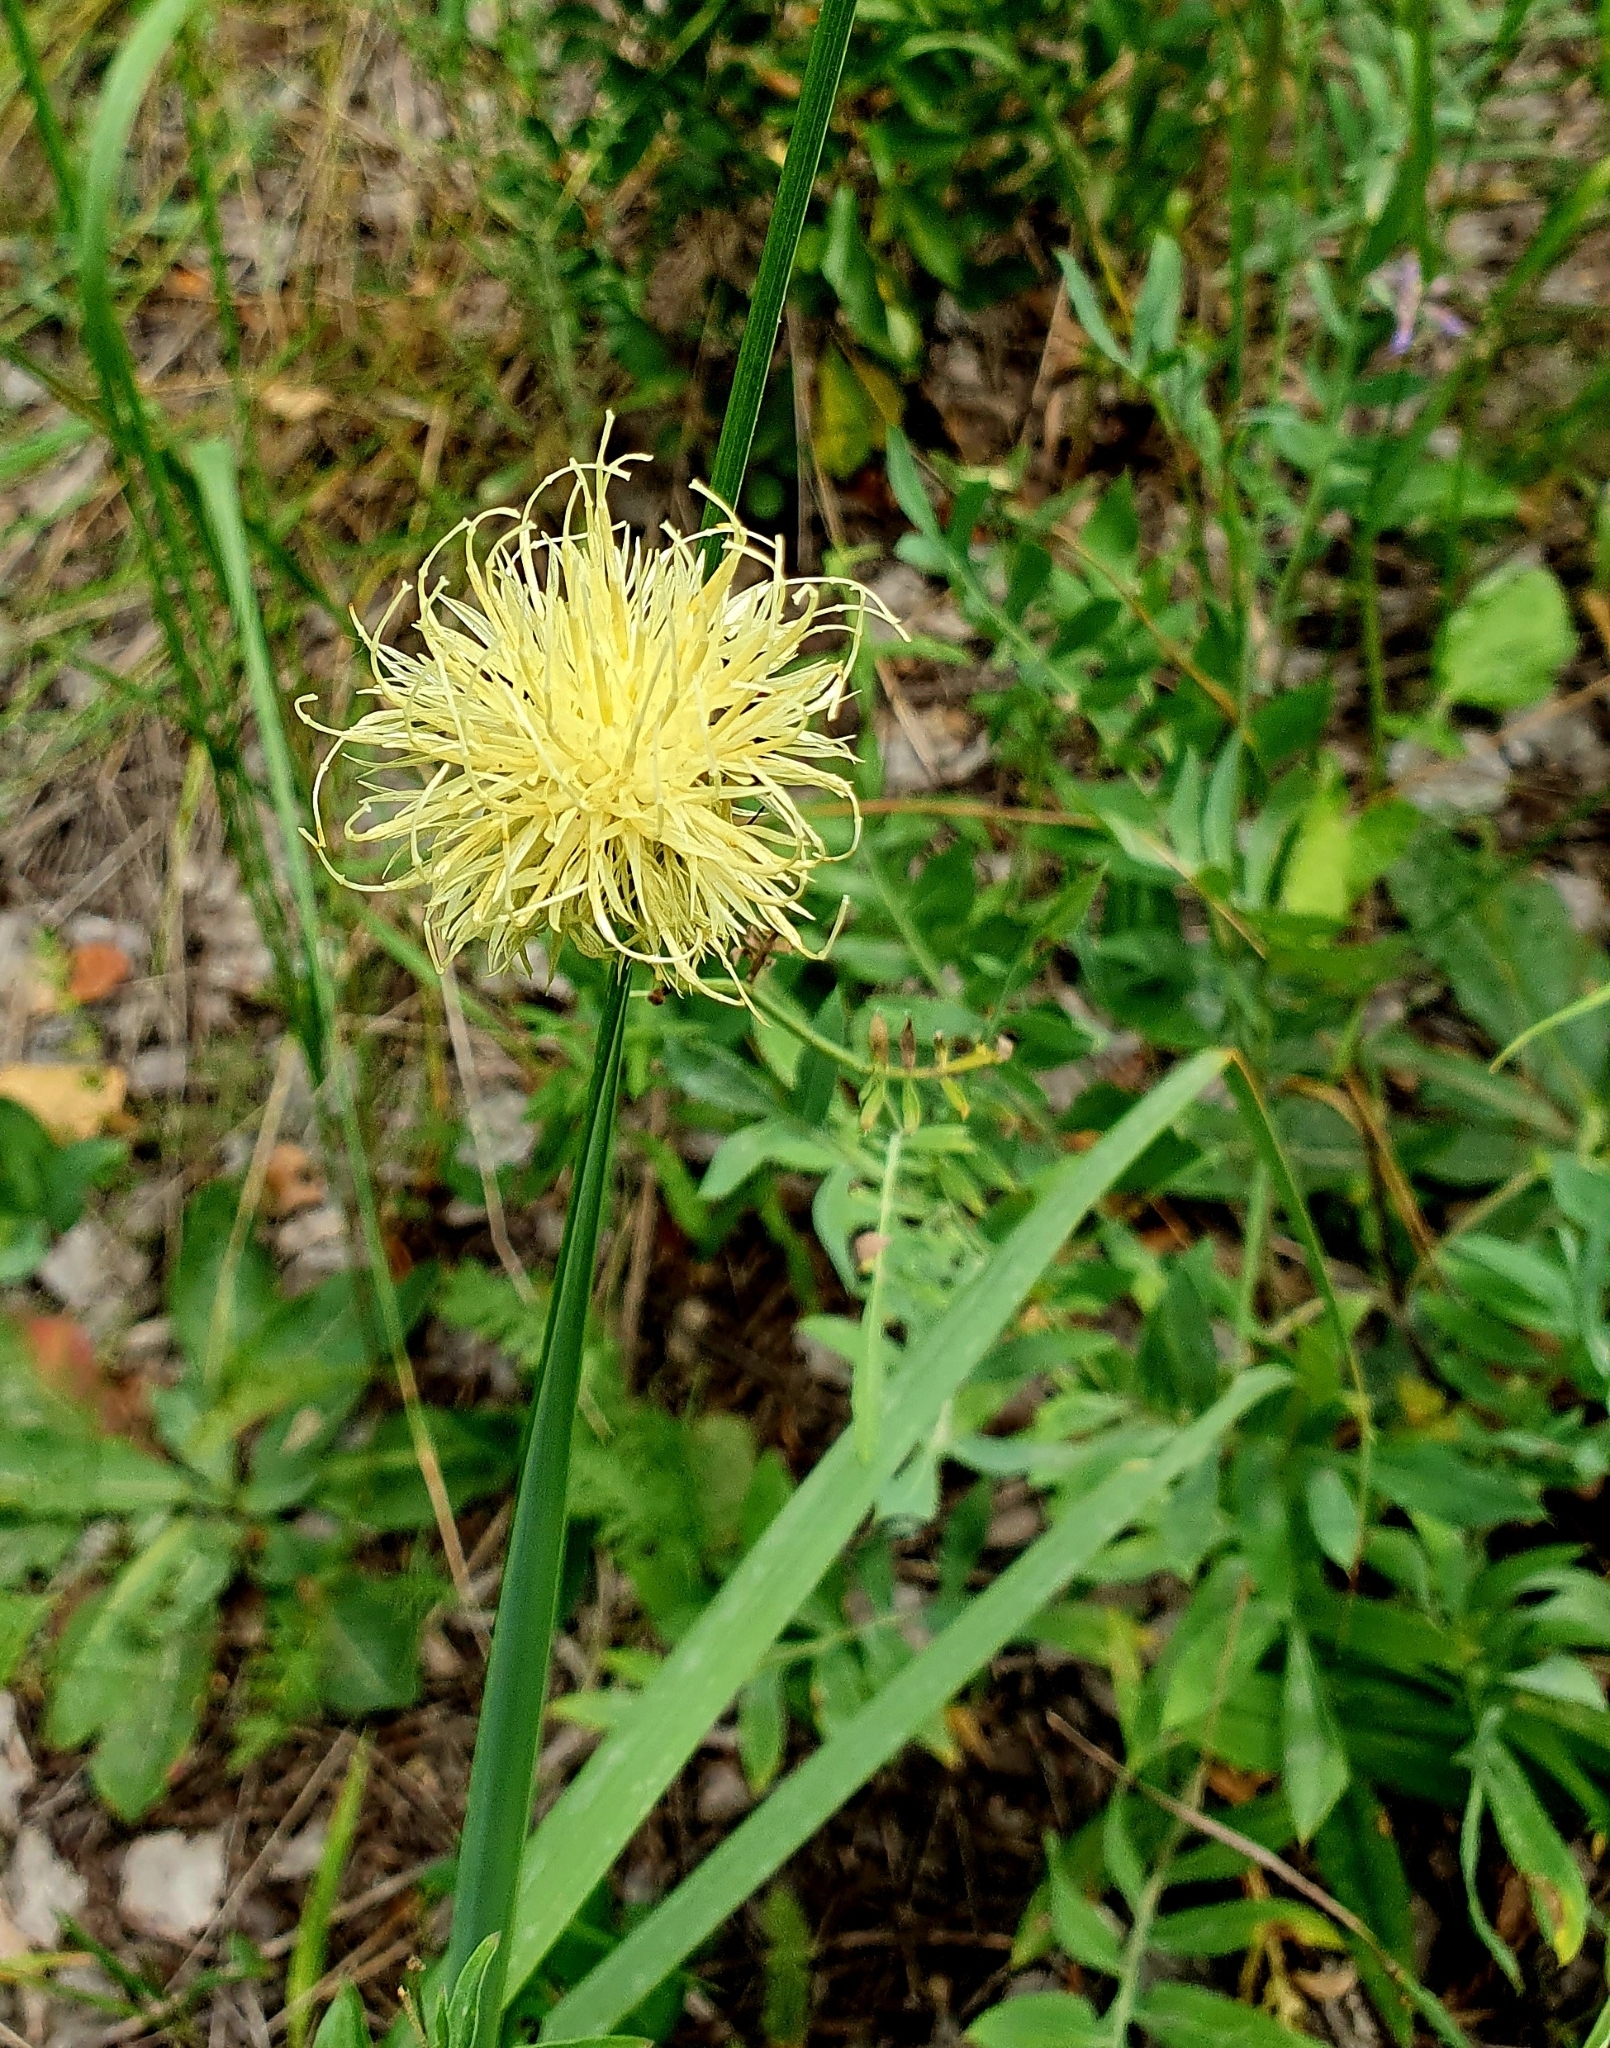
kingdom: Plantae
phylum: Tracheophyta
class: Magnoliopsida
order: Asterales
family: Asteraceae
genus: Rhaponticoides
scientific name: Rhaponticoides ruthenica
